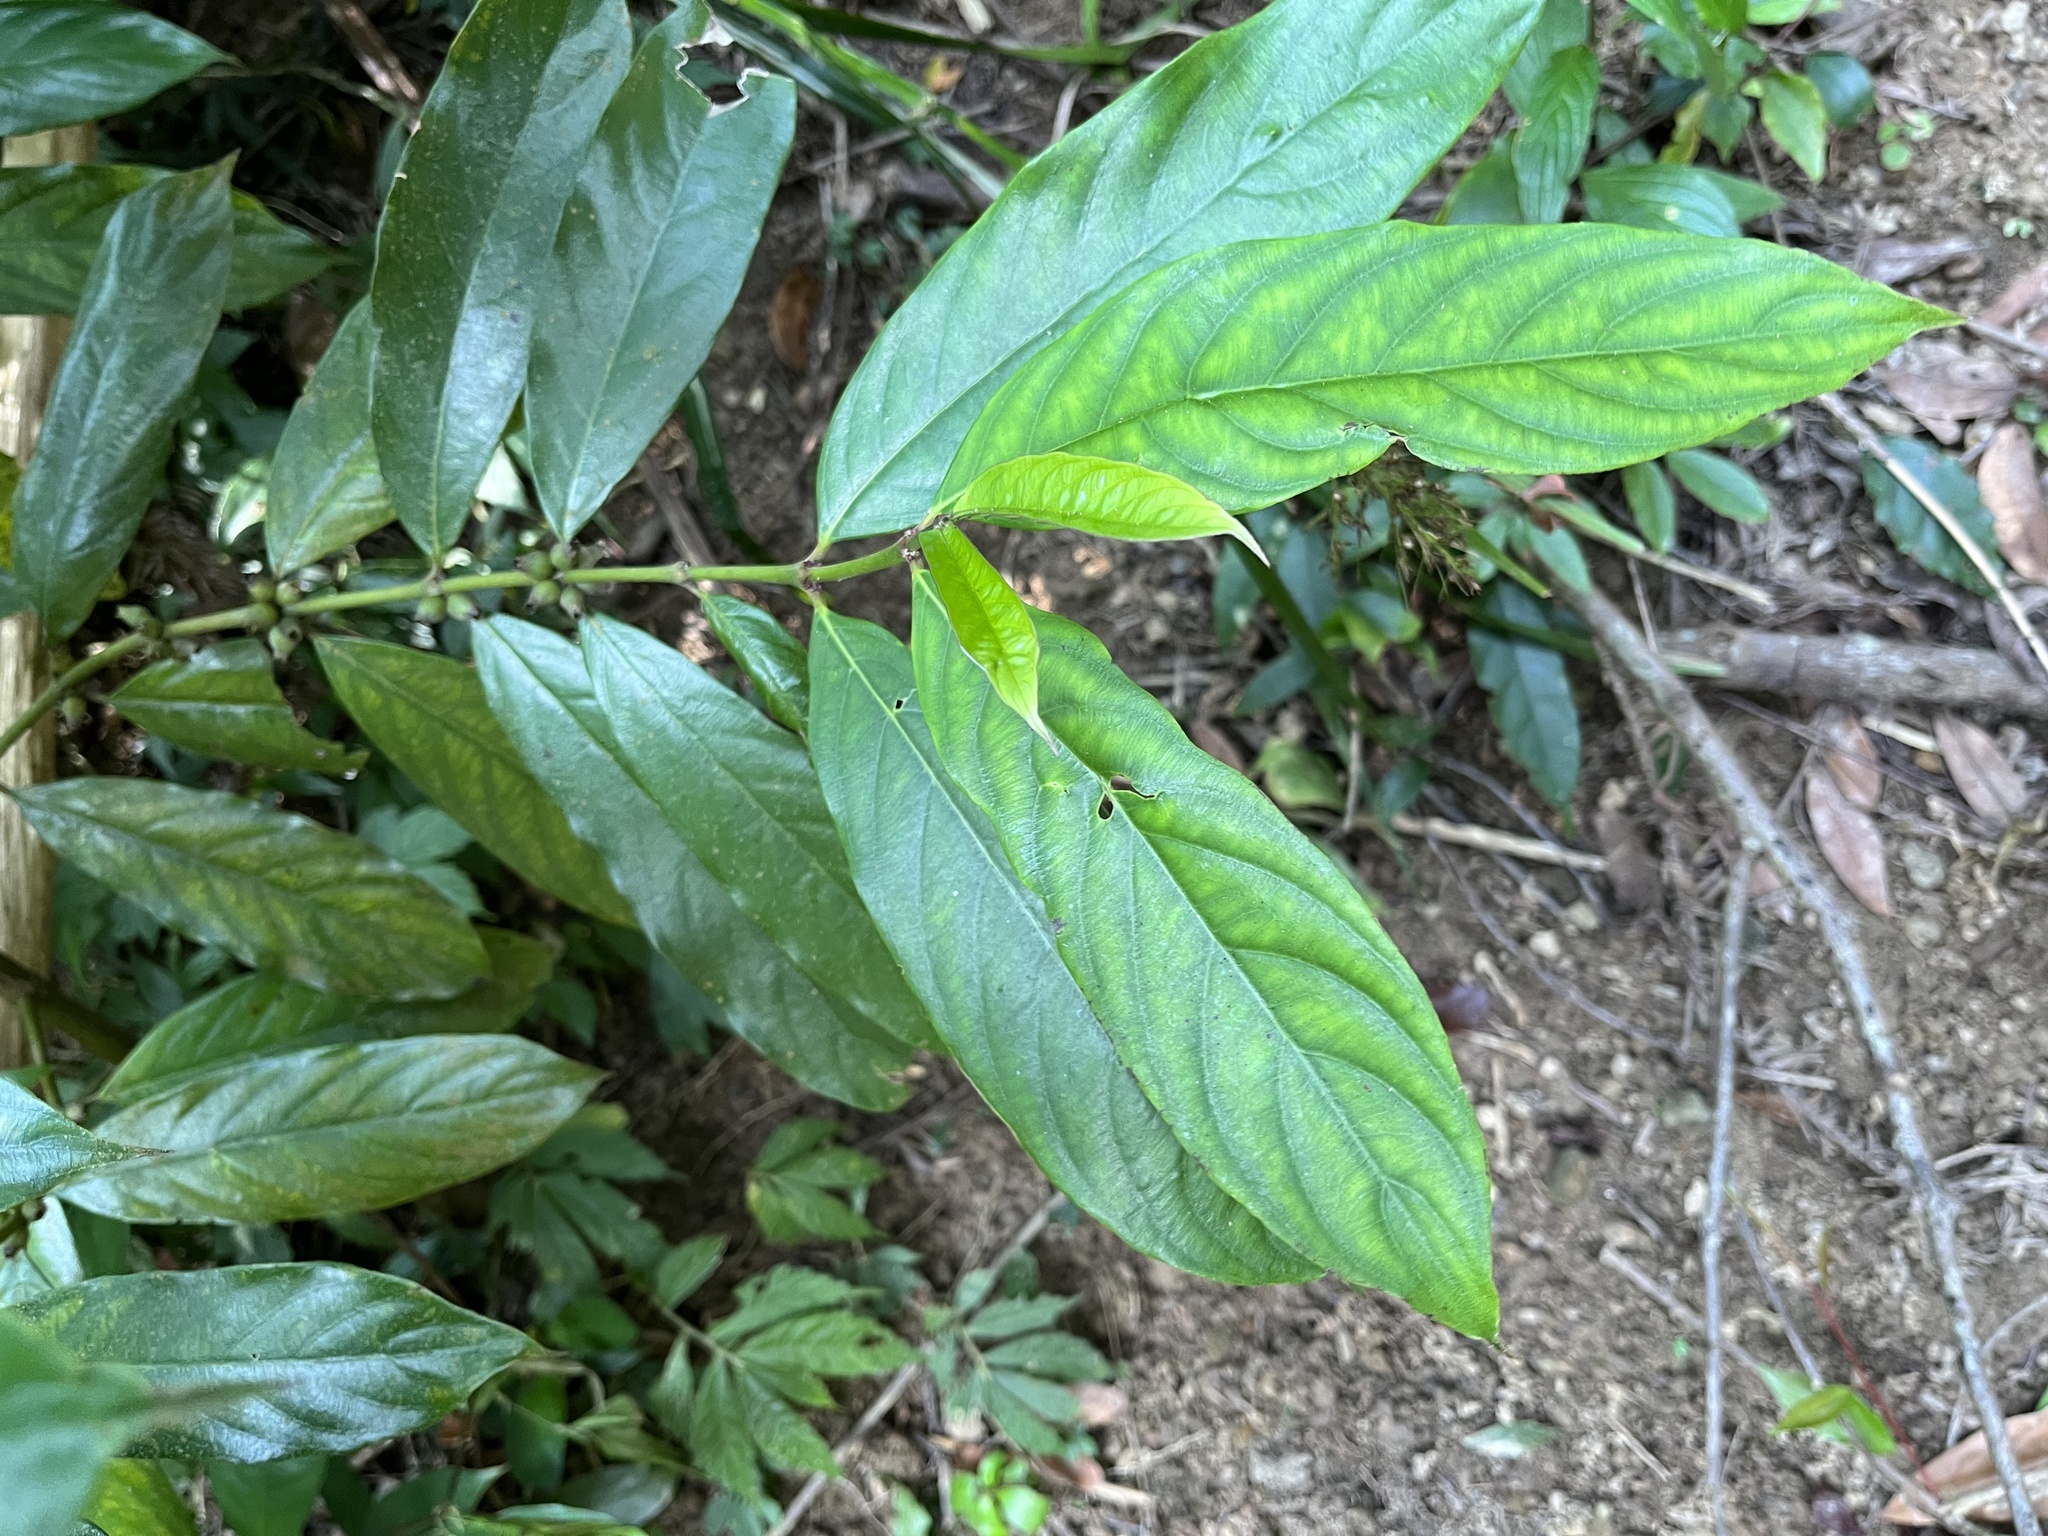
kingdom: Plantae
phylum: Tracheophyta
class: Magnoliopsida
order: Gentianales
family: Rubiaceae
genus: Lasianthus
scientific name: Lasianthus verticillatus
